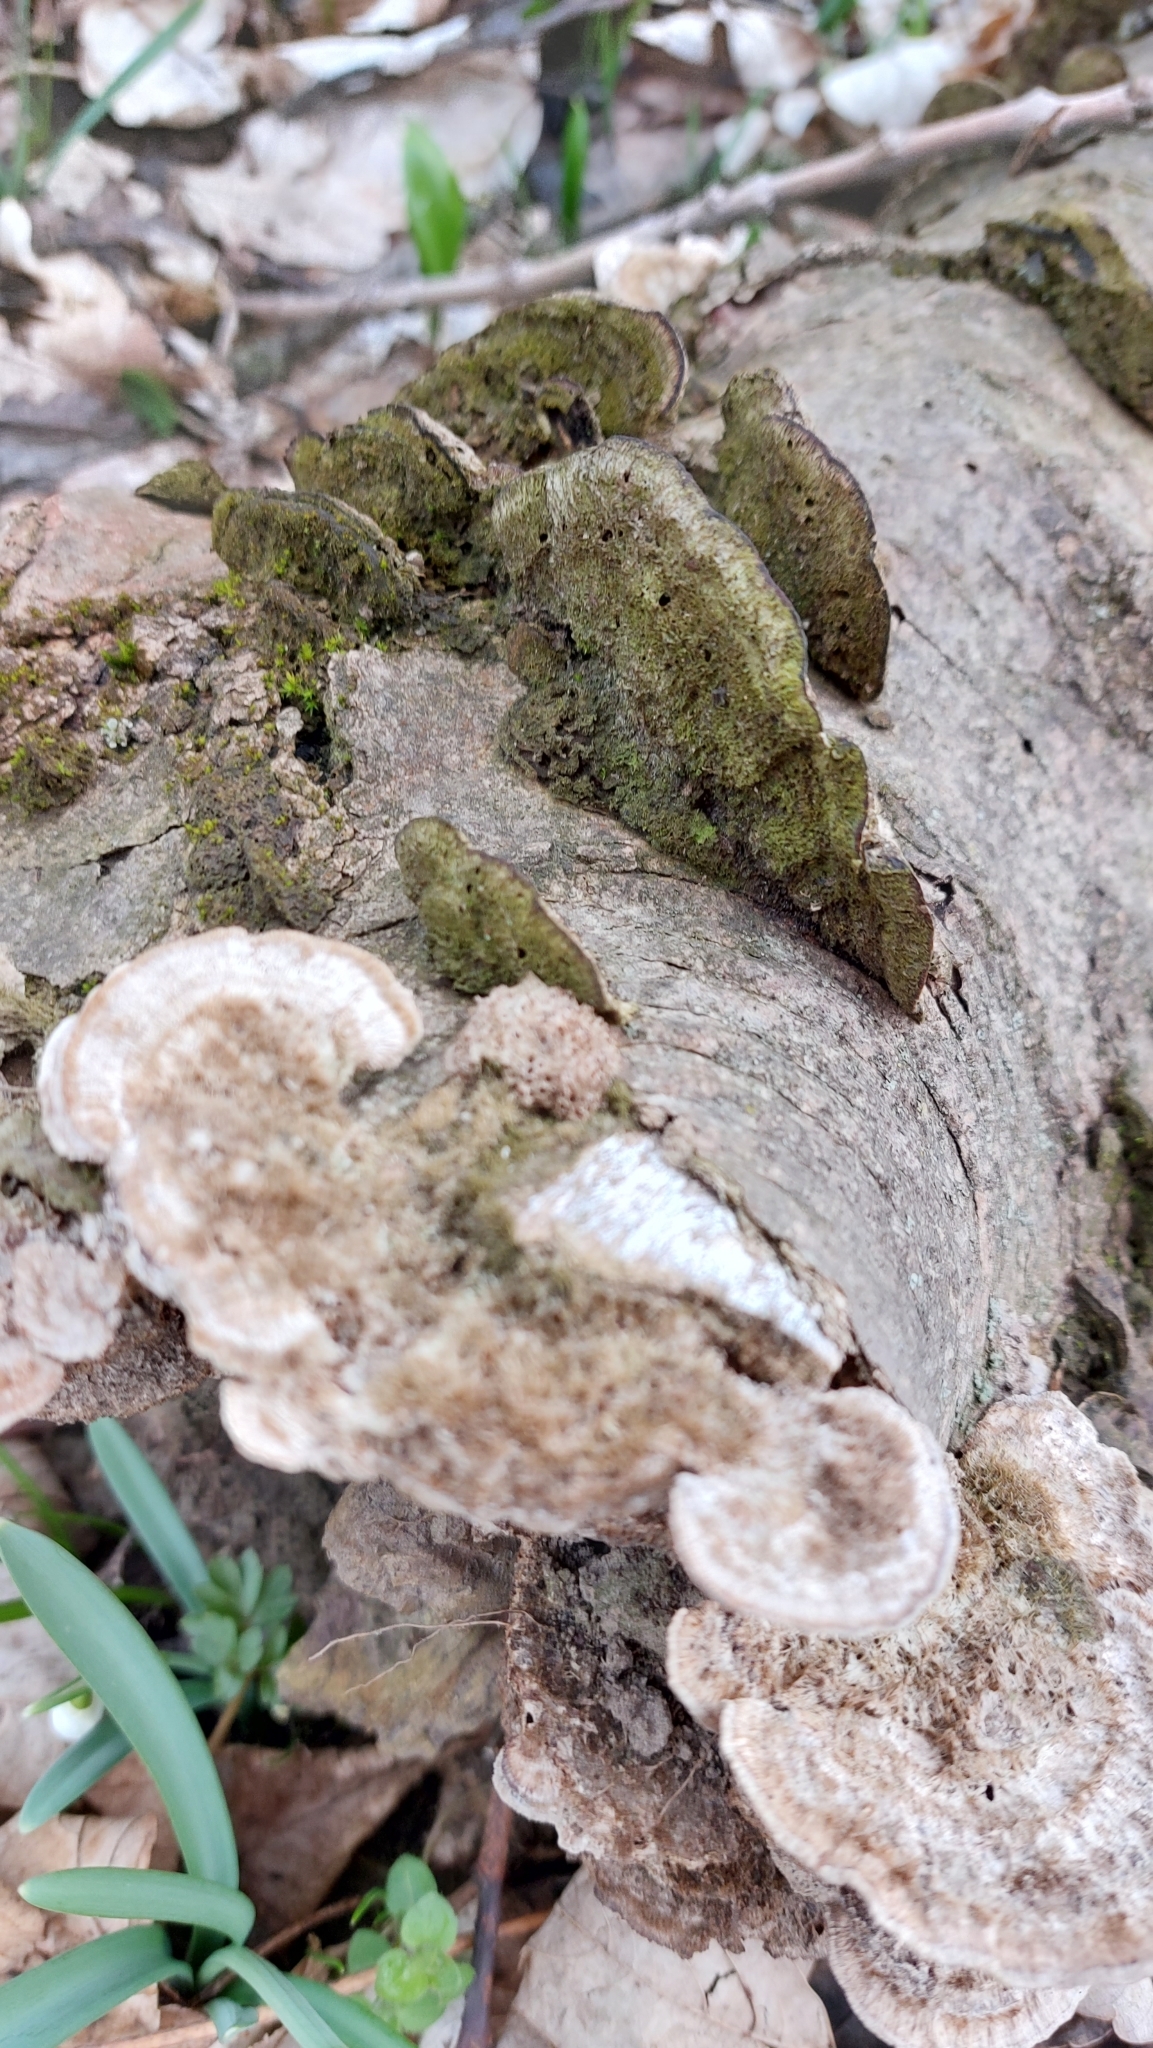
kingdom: Fungi
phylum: Basidiomycota
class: Agaricomycetes
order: Polyporales
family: Irpicaceae
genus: Trametopsis
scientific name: Trametopsis cervina
